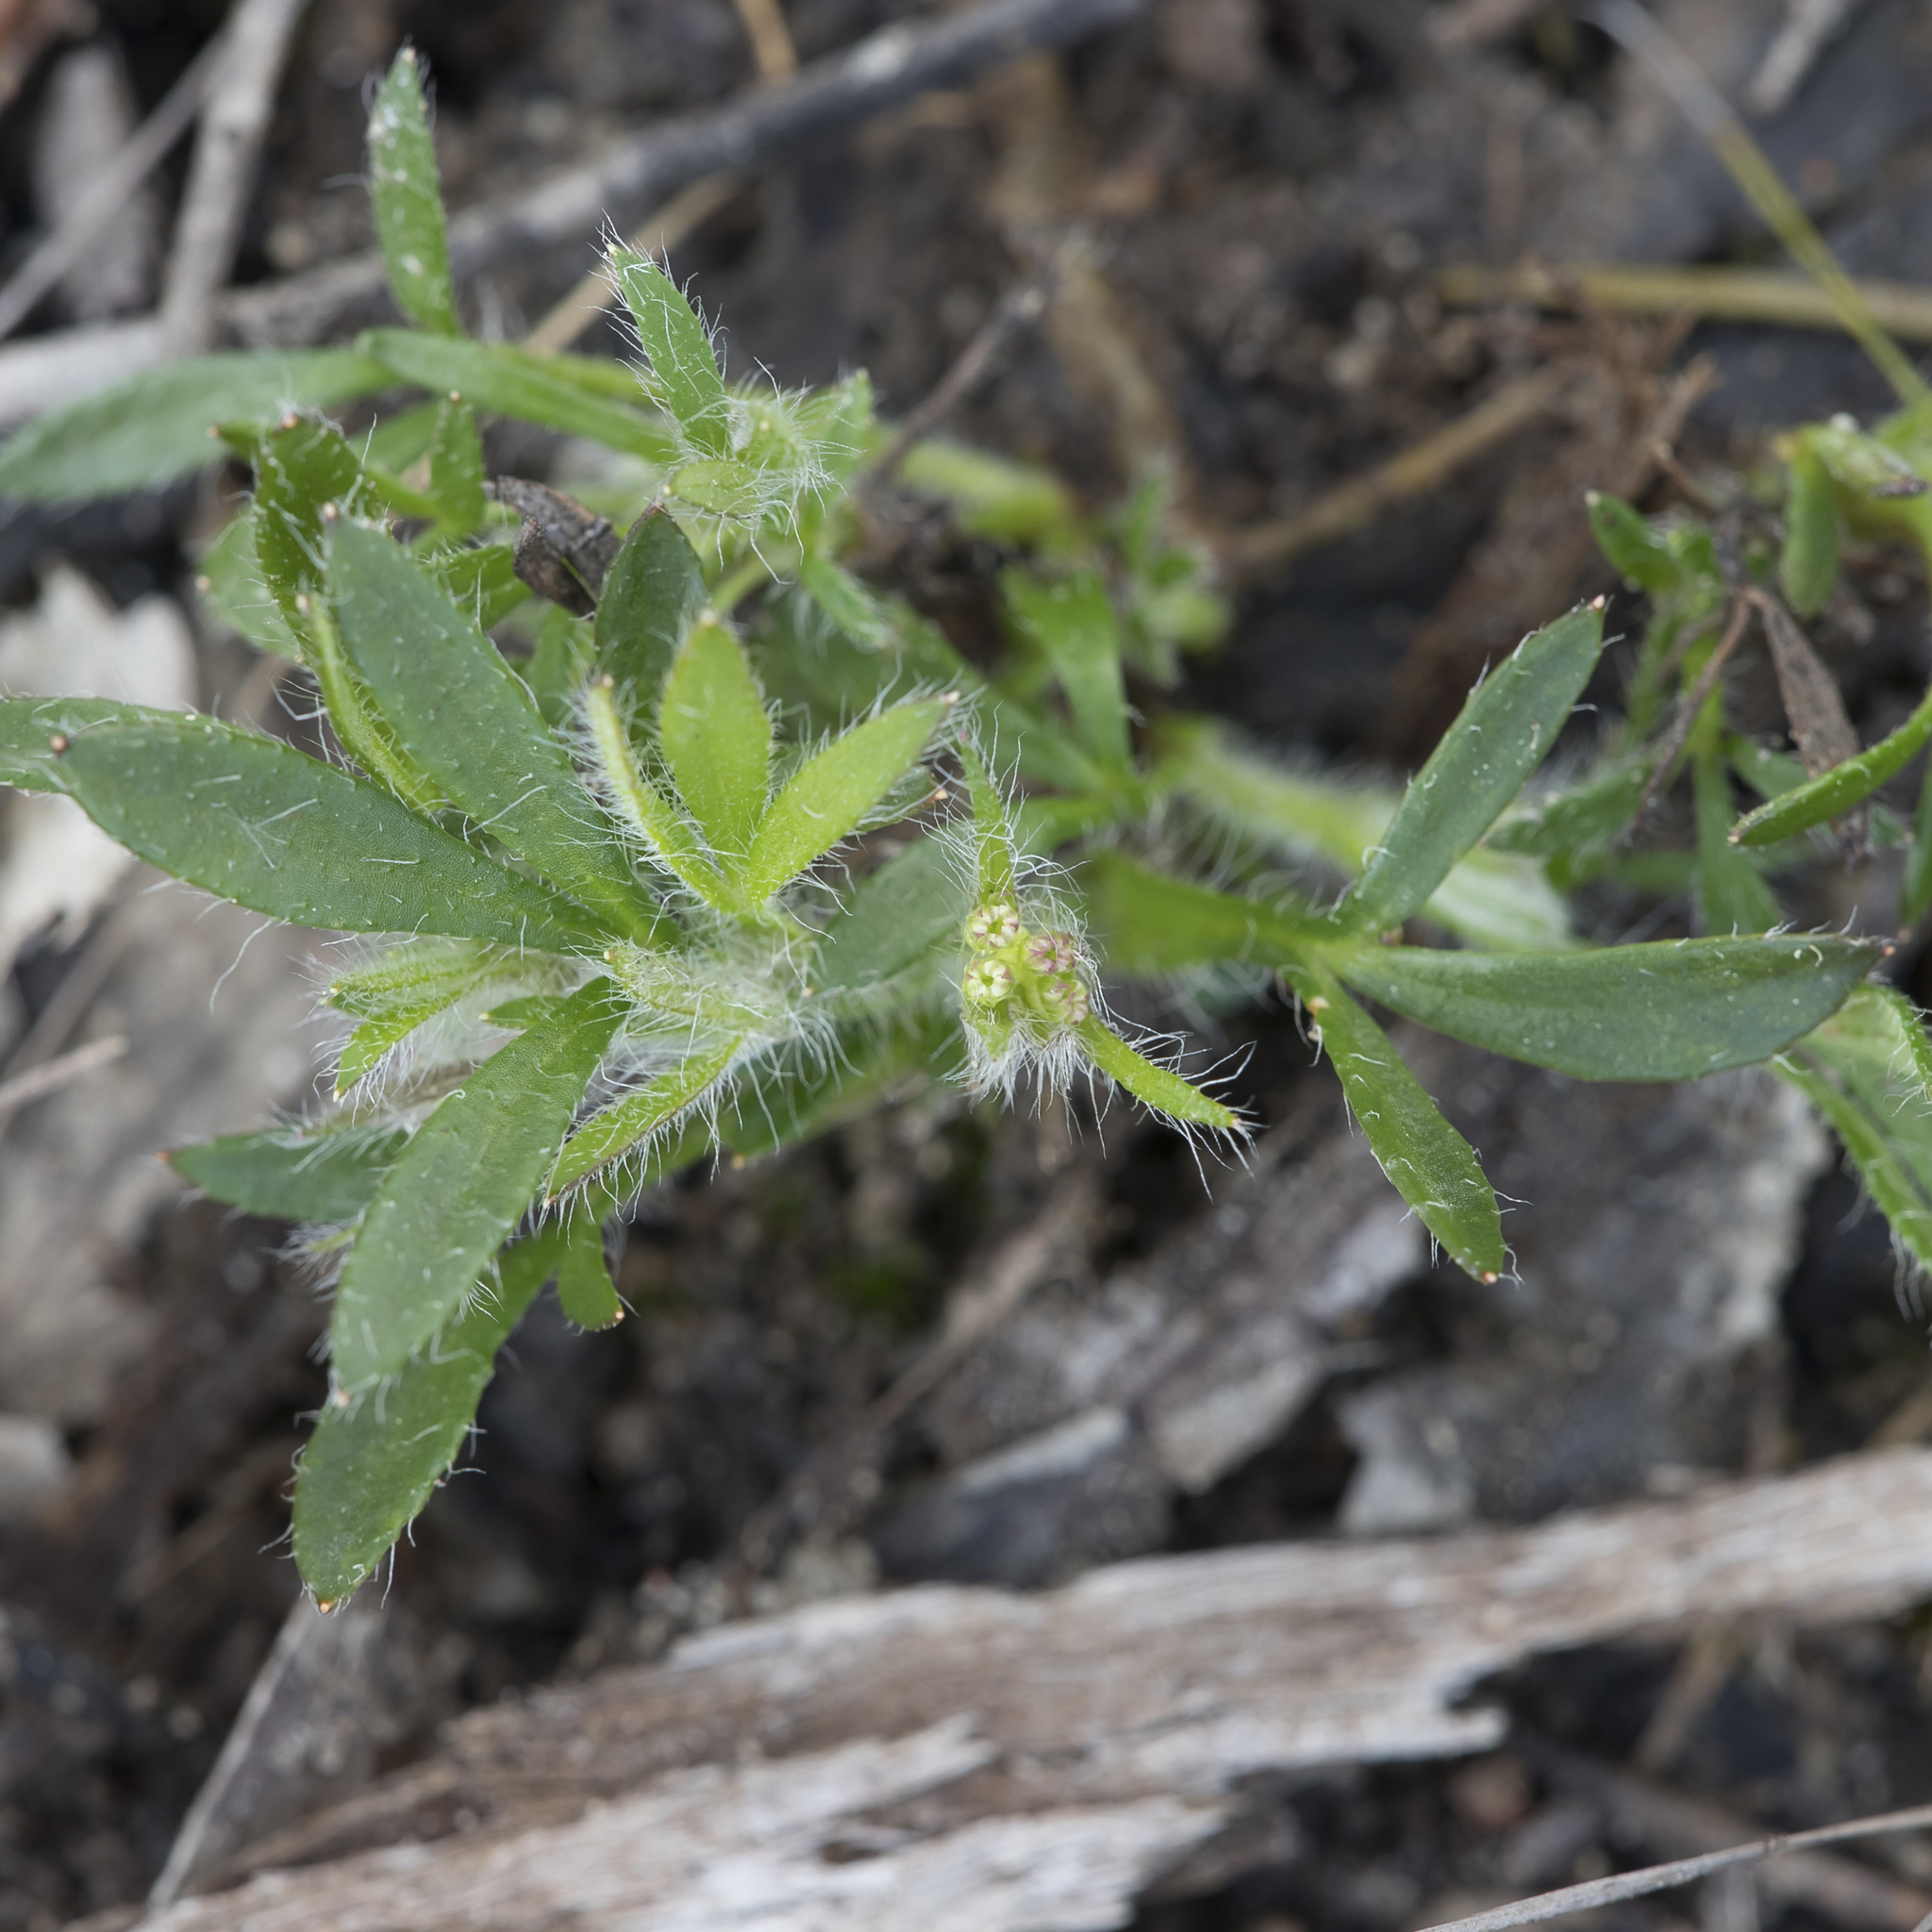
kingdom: Plantae
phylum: Tracheophyta
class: Magnoliopsida
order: Apiales
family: Apiaceae
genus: Xanthosia
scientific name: Xanthosia huegelii
